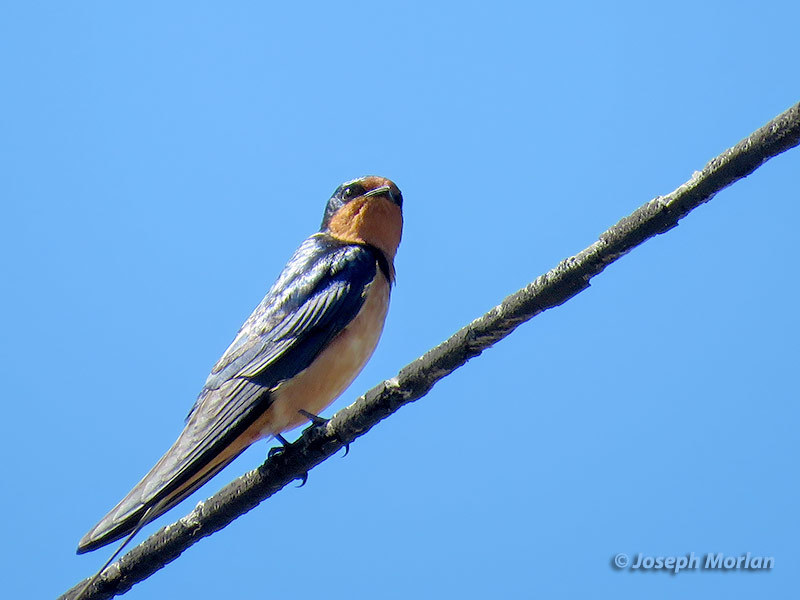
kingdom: Animalia
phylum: Chordata
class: Aves
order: Passeriformes
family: Hirundinidae
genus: Hirundo
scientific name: Hirundo rustica
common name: Barn swallow
